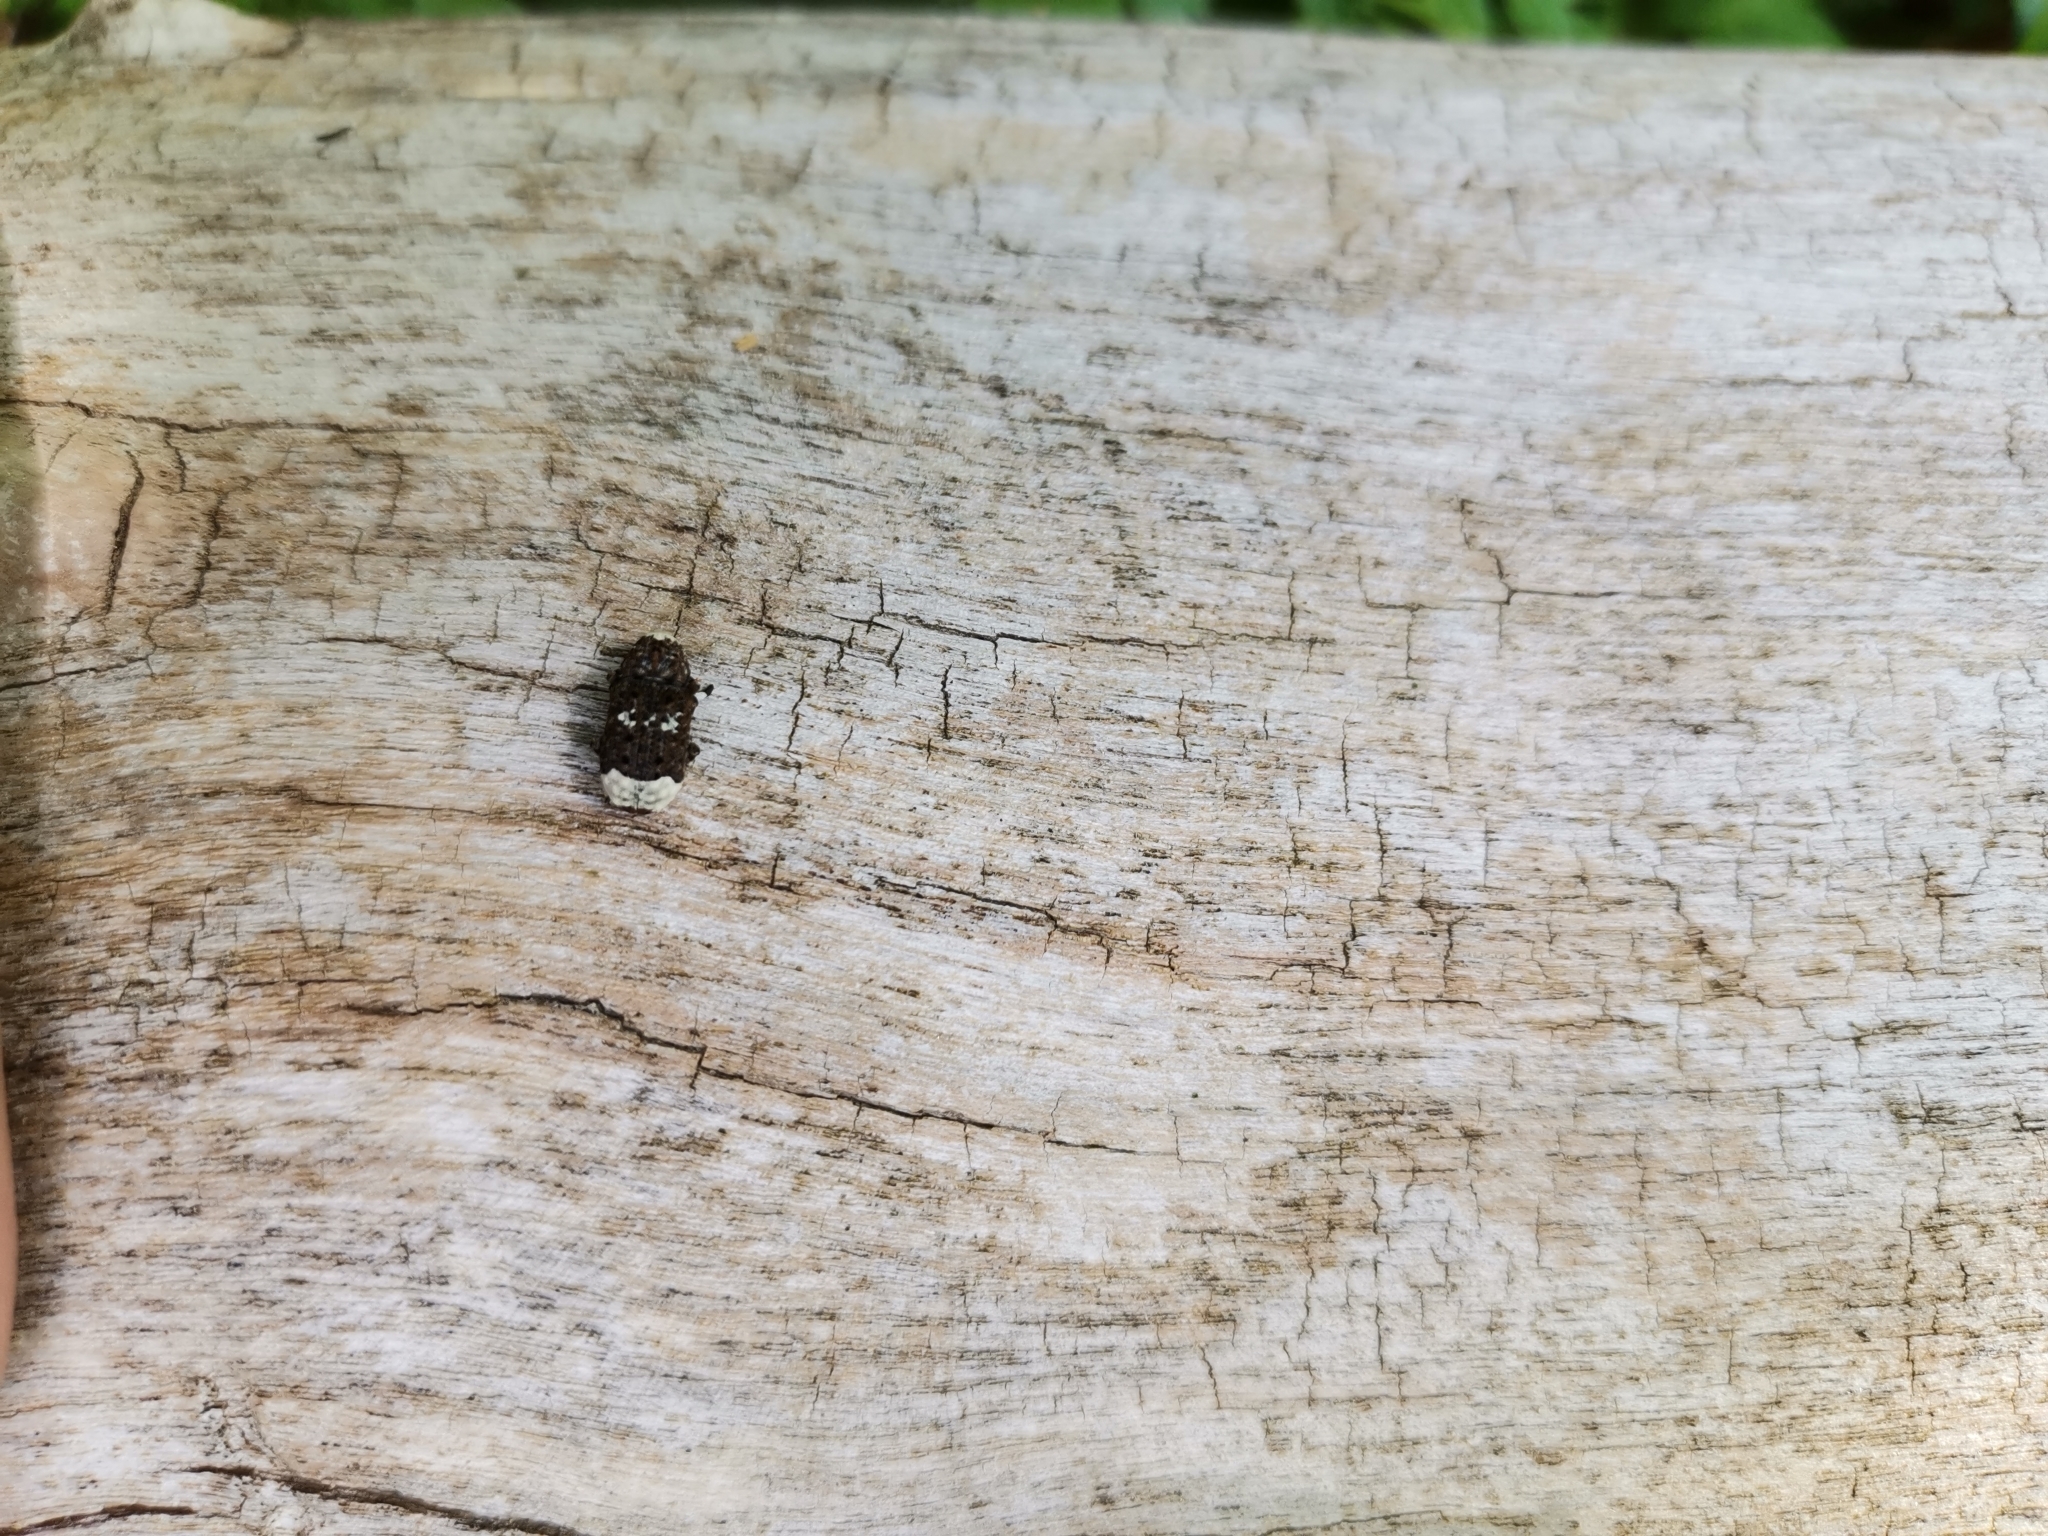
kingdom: Animalia
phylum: Arthropoda
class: Insecta
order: Coleoptera
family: Anthribidae
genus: Platystomos
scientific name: Platystomos albinus
